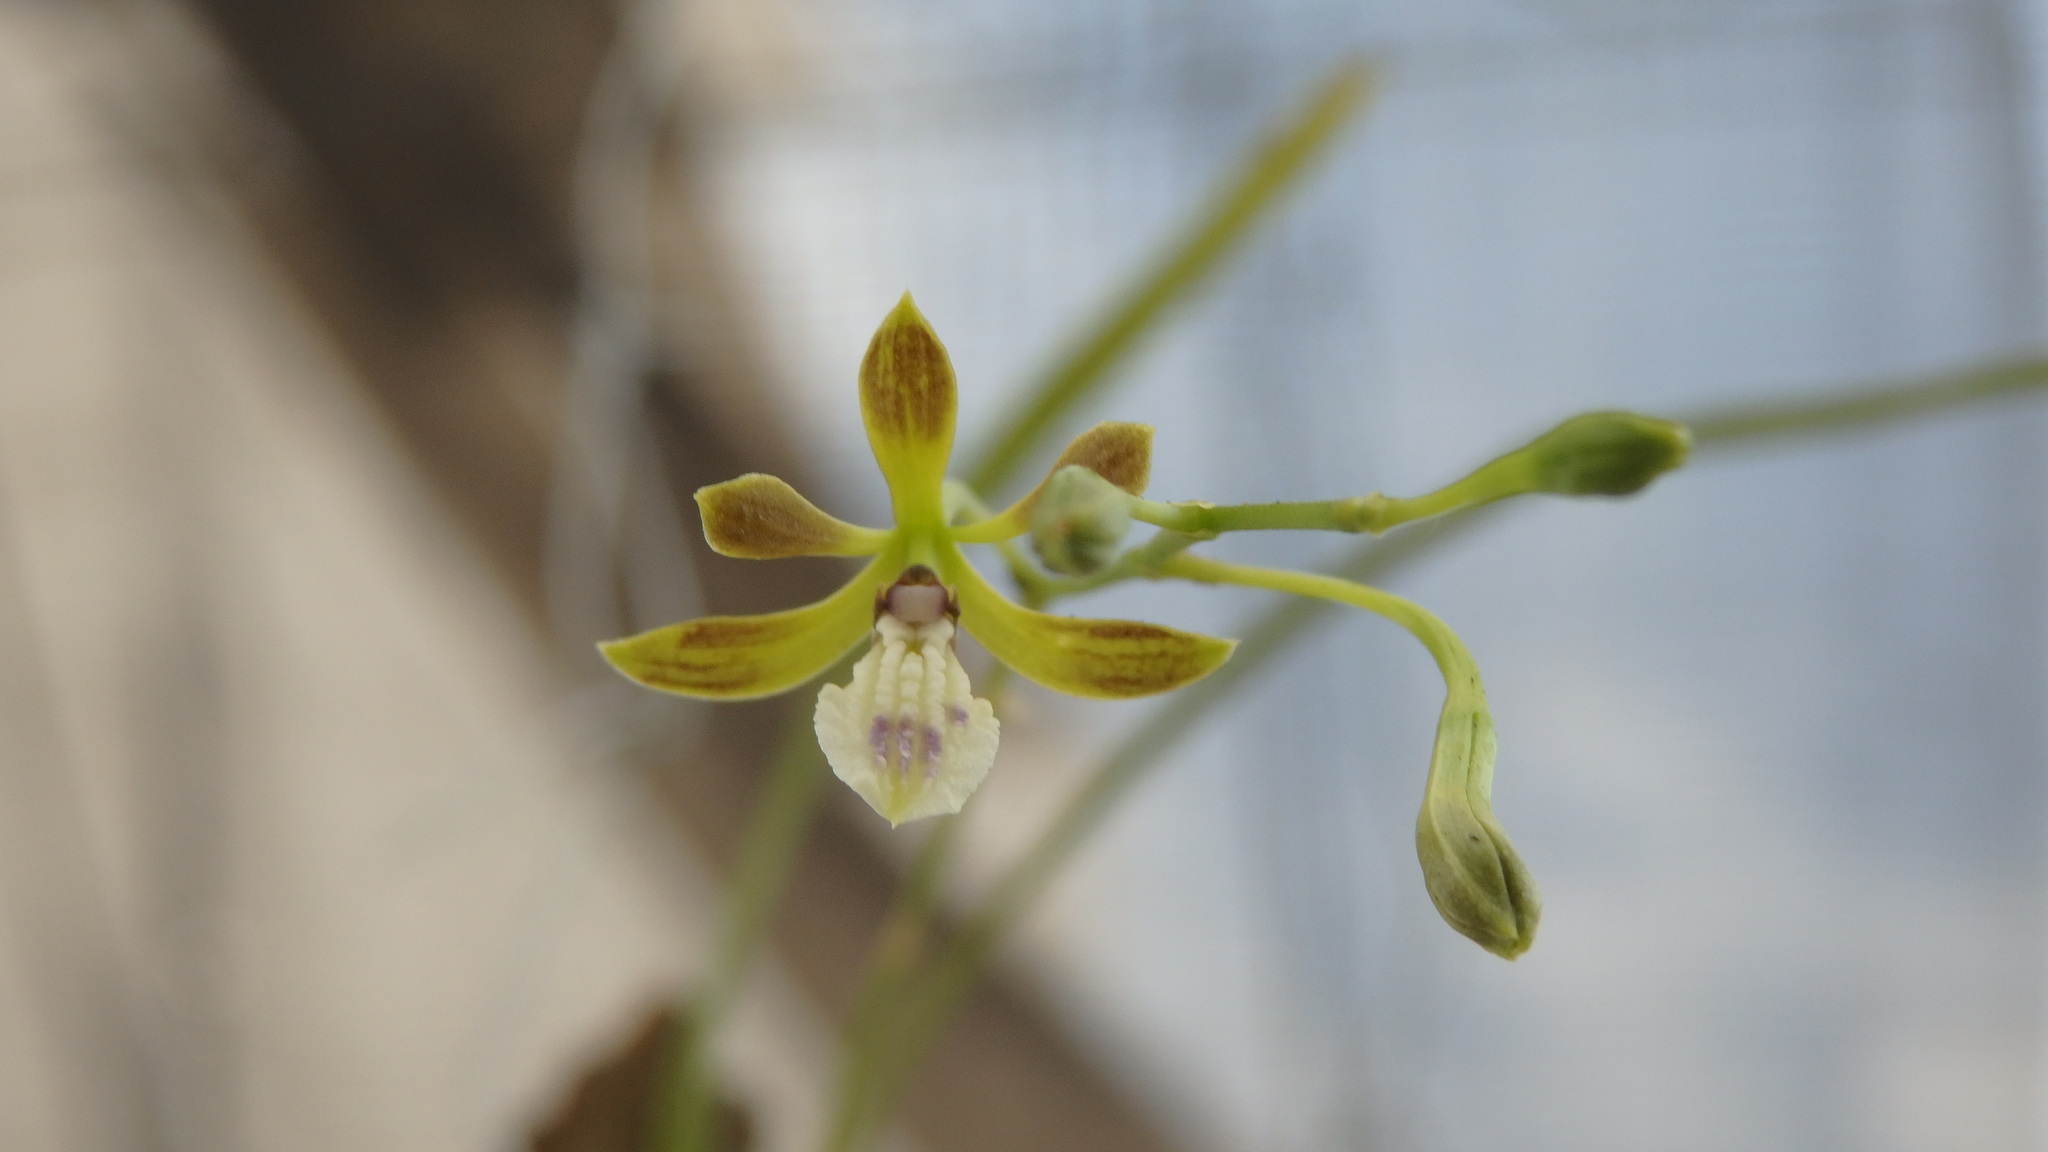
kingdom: Plantae
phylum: Tracheophyta
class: Liliopsida
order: Asparagales
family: Orchidaceae
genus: Oestlundia
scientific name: Oestlundia luteorosea
